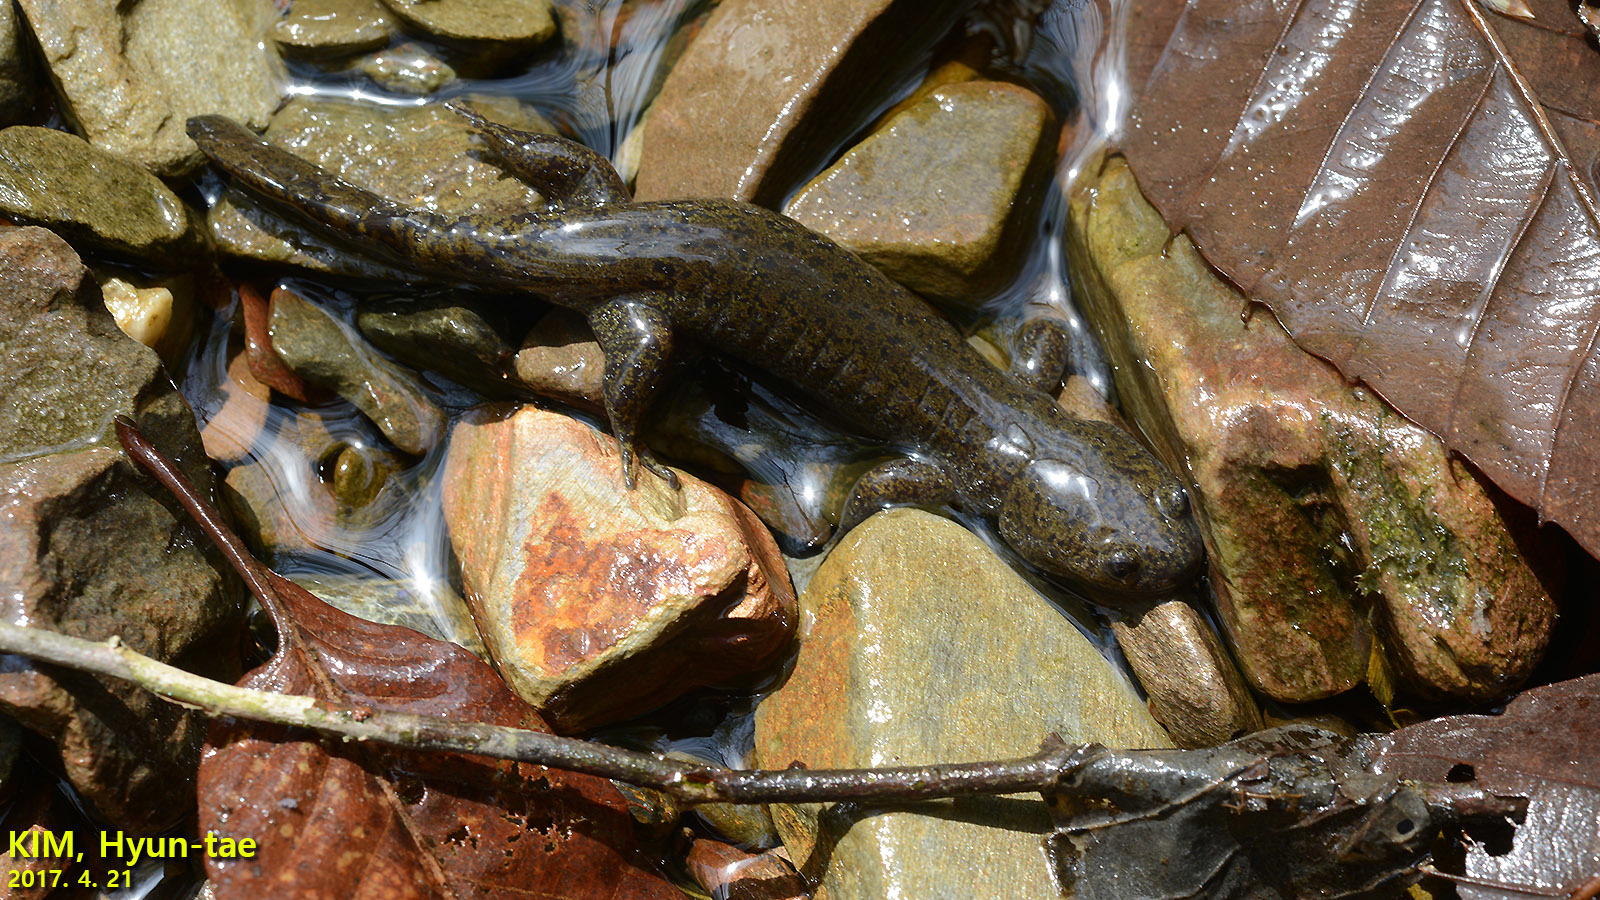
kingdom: Animalia
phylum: Chordata
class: Amphibia
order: Caudata
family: Hynobiidae
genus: Hynobius
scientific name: Hynobius leechii
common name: Gensan salamander
